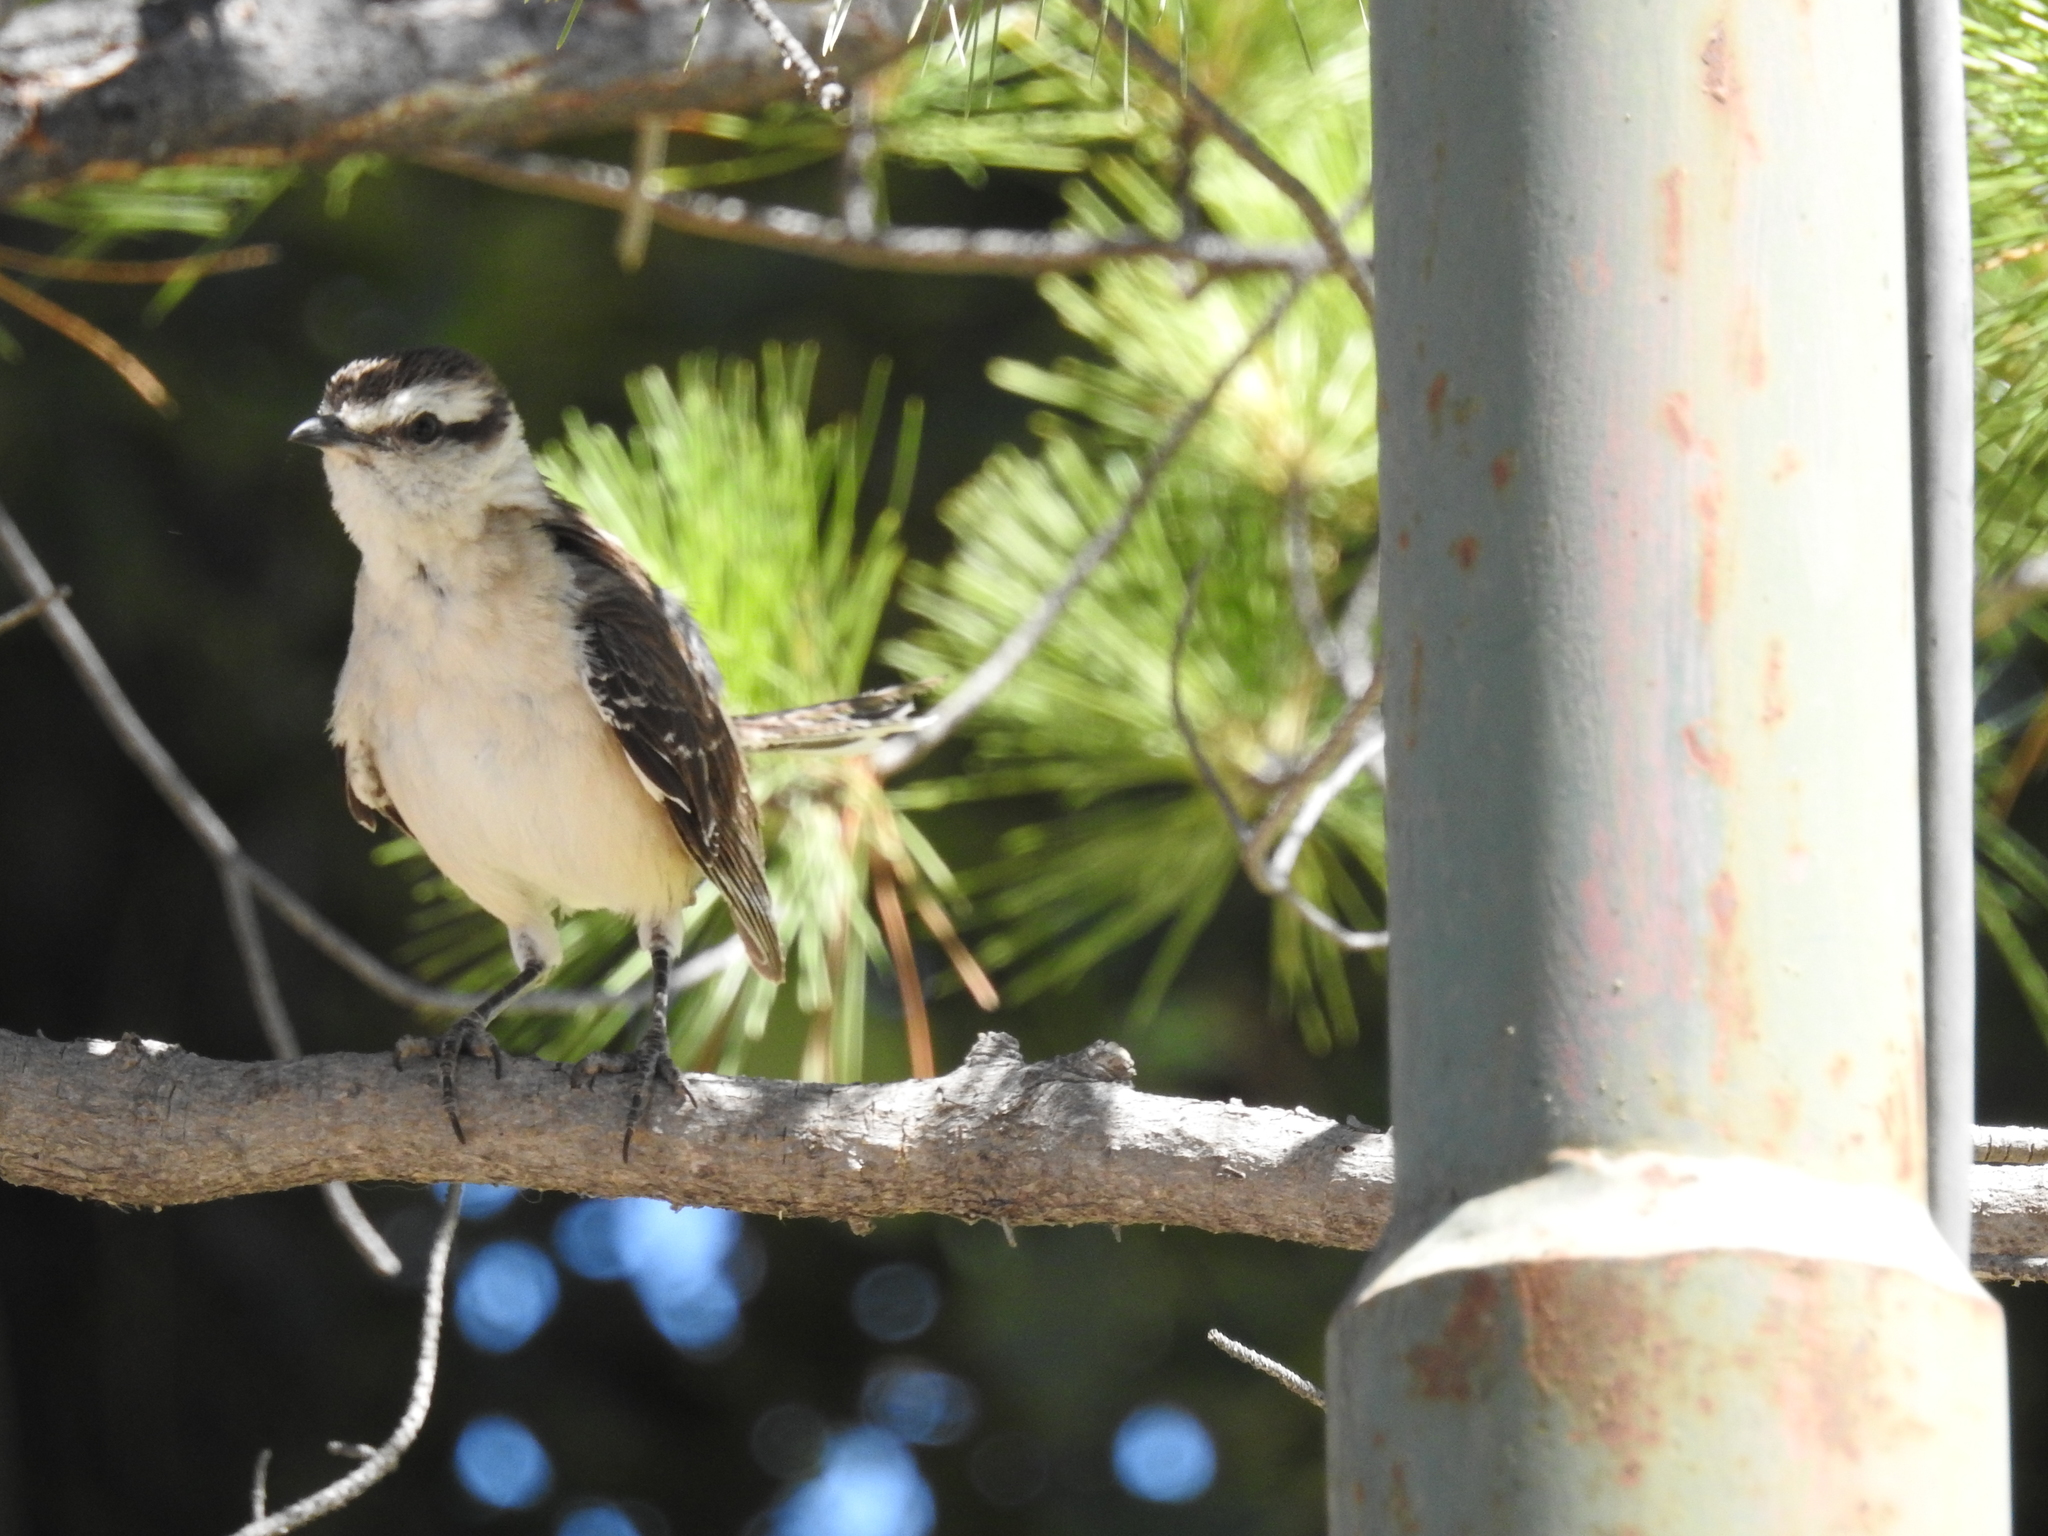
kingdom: Animalia
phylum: Chordata
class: Aves
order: Passeriformes
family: Mimidae
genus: Mimus
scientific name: Mimus saturninus
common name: Chalk-browed mockingbird
